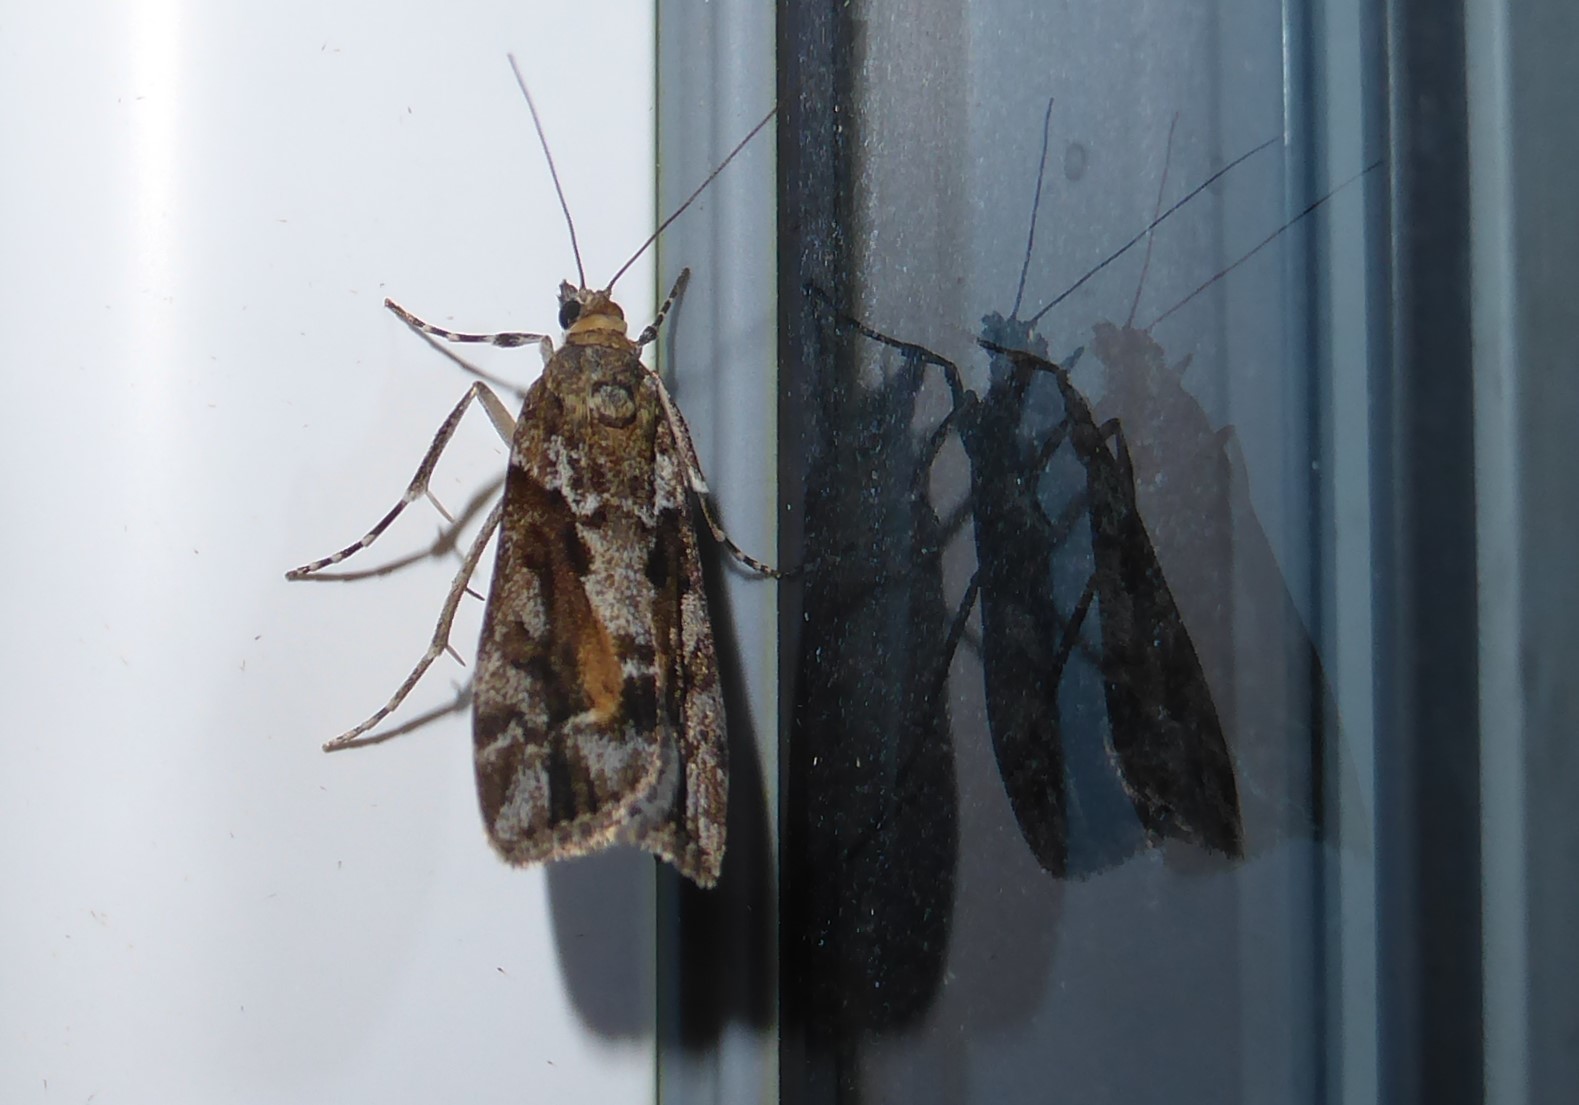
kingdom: Animalia
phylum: Arthropoda
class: Insecta
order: Lepidoptera
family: Crambidae
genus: Eudonia
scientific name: Eudonia submarginalis
